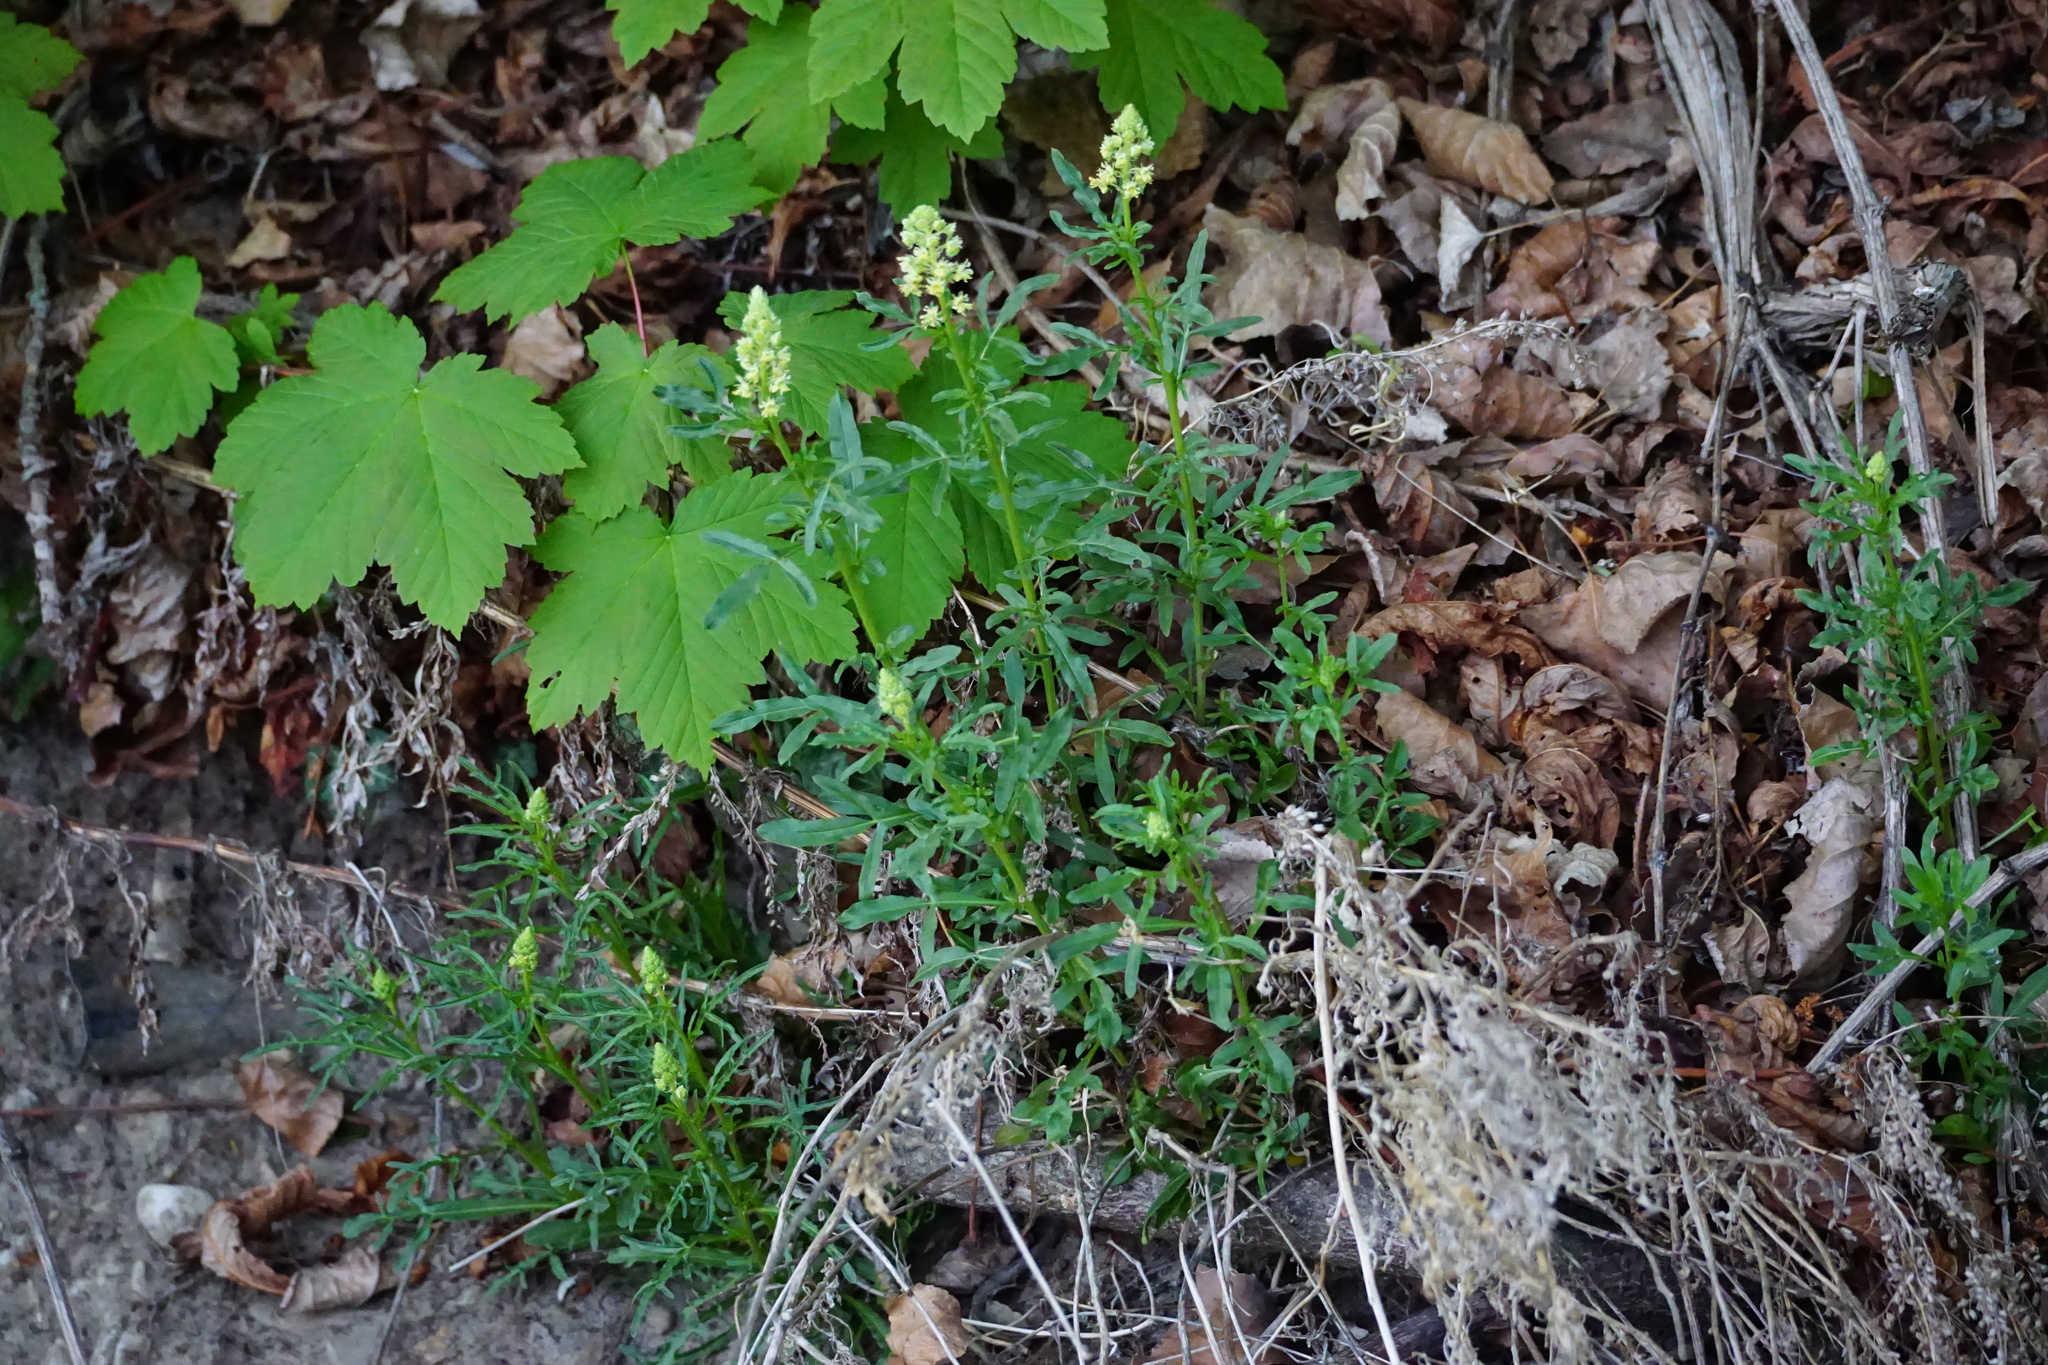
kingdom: Plantae
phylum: Tracheophyta
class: Magnoliopsida
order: Brassicales
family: Resedaceae
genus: Reseda
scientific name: Reseda lutea
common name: Wild mignonette
